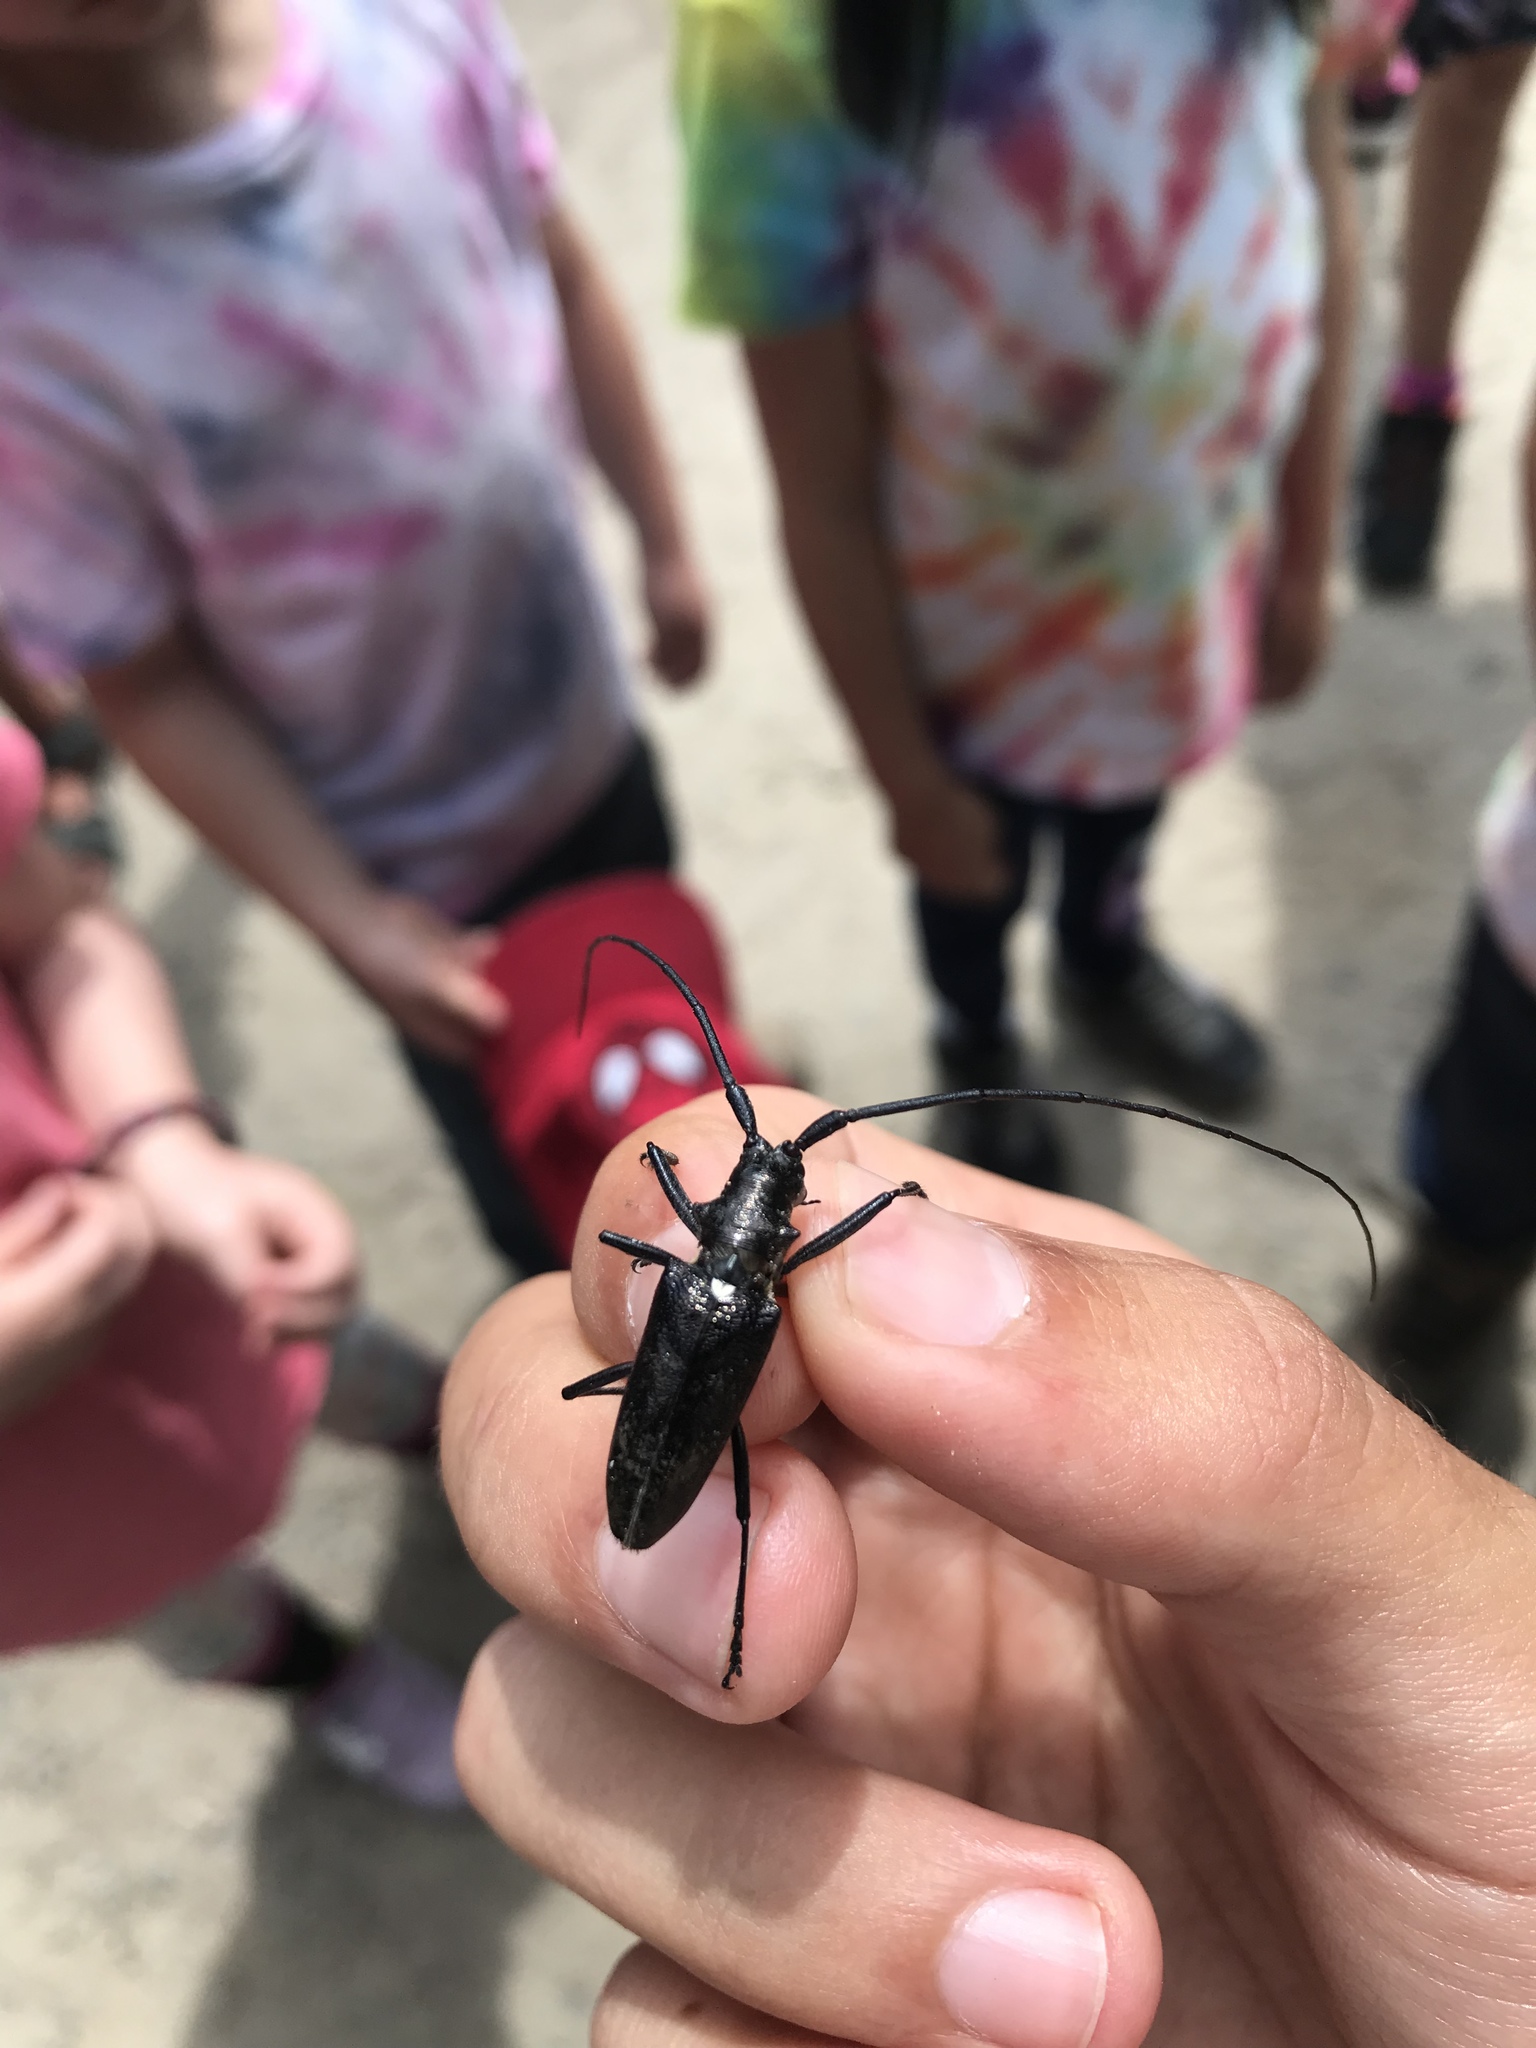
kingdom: Animalia
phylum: Arthropoda
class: Insecta
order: Coleoptera
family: Cerambycidae
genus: Monochamus
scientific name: Monochamus scutellatus
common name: White-spotted sawyer beetle
